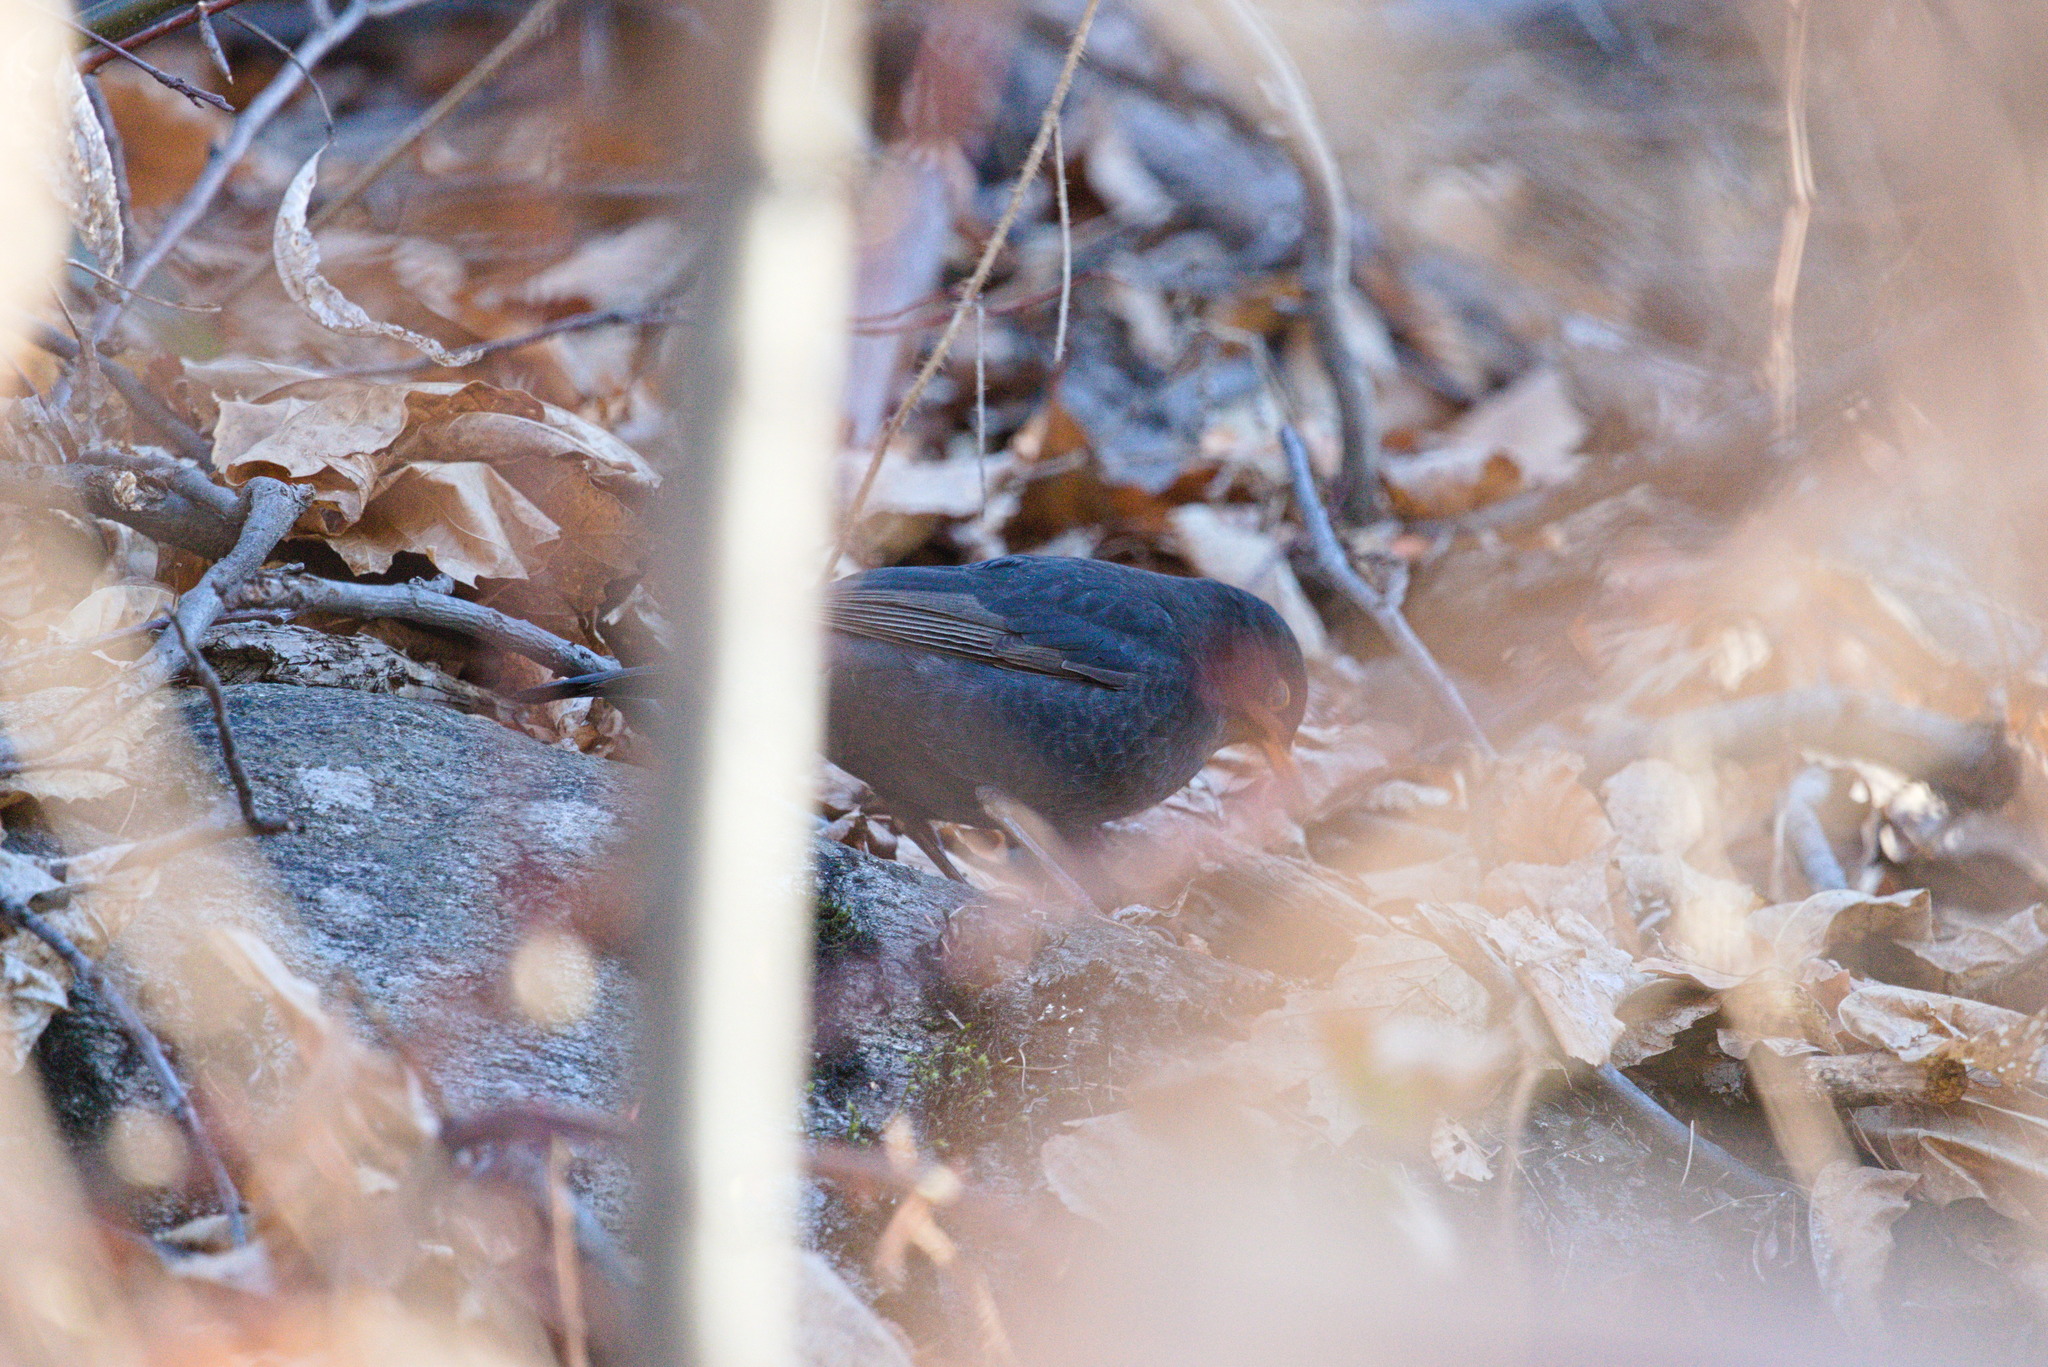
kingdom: Animalia
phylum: Chordata
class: Aves
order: Passeriformes
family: Turdidae
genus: Turdus
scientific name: Turdus merula
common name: Common blackbird
